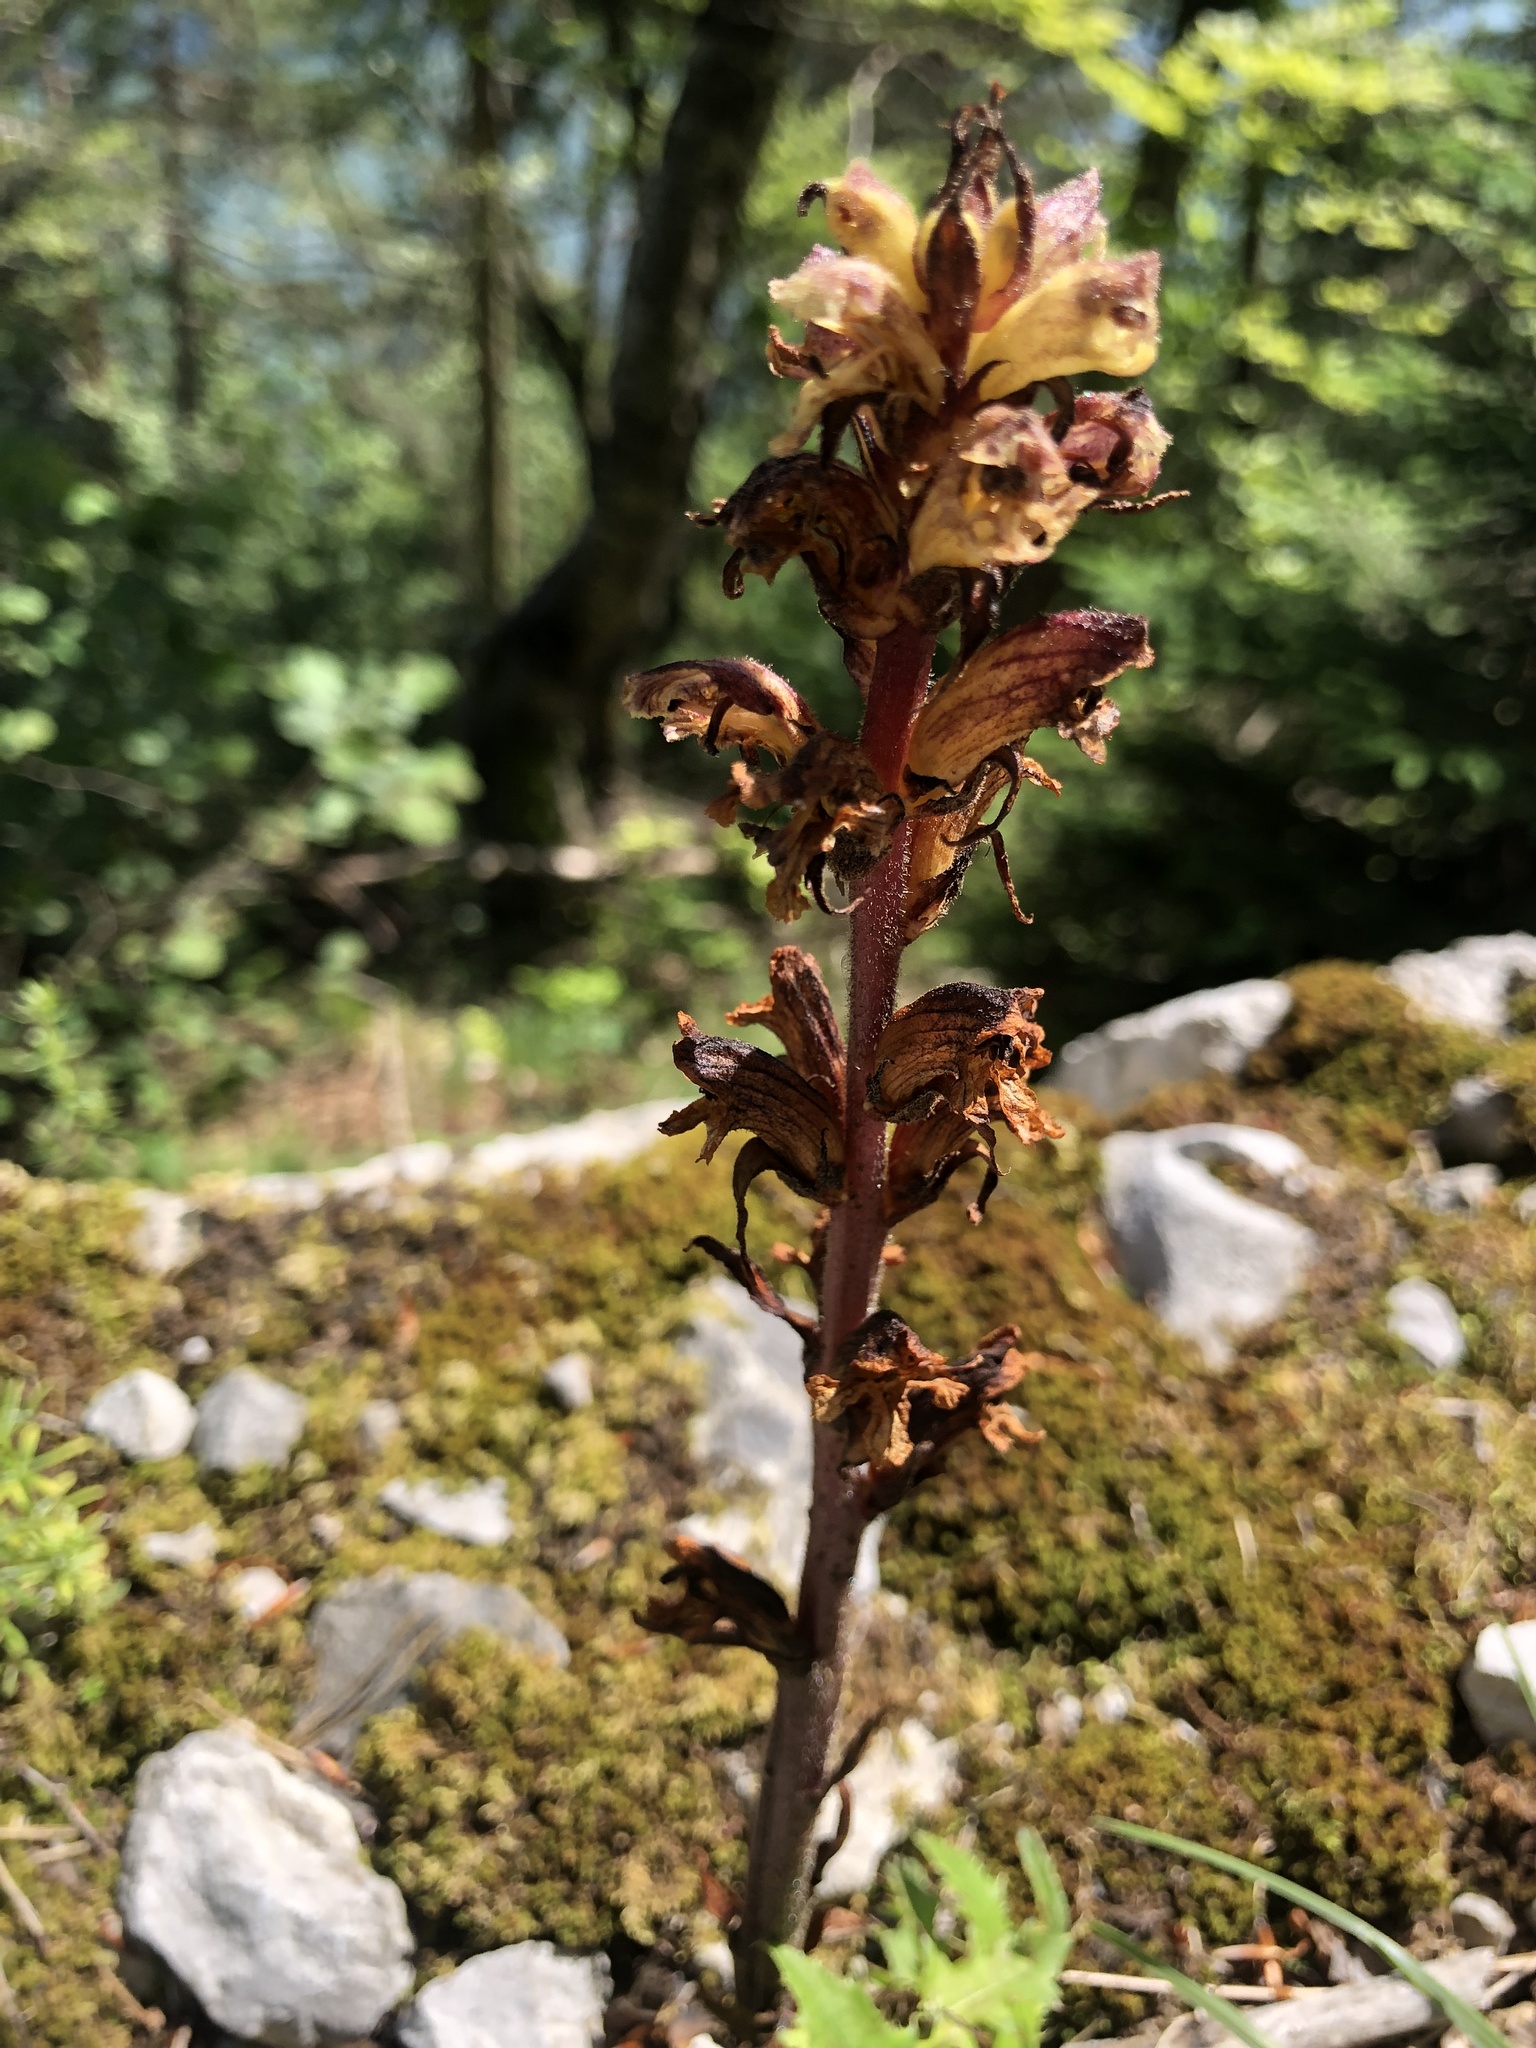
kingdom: Plantae
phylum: Tracheophyta
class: Magnoliopsida
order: Lamiales
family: Orobanchaceae
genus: Orobanche
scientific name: Orobanche reticulata
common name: Thistle broomrape
